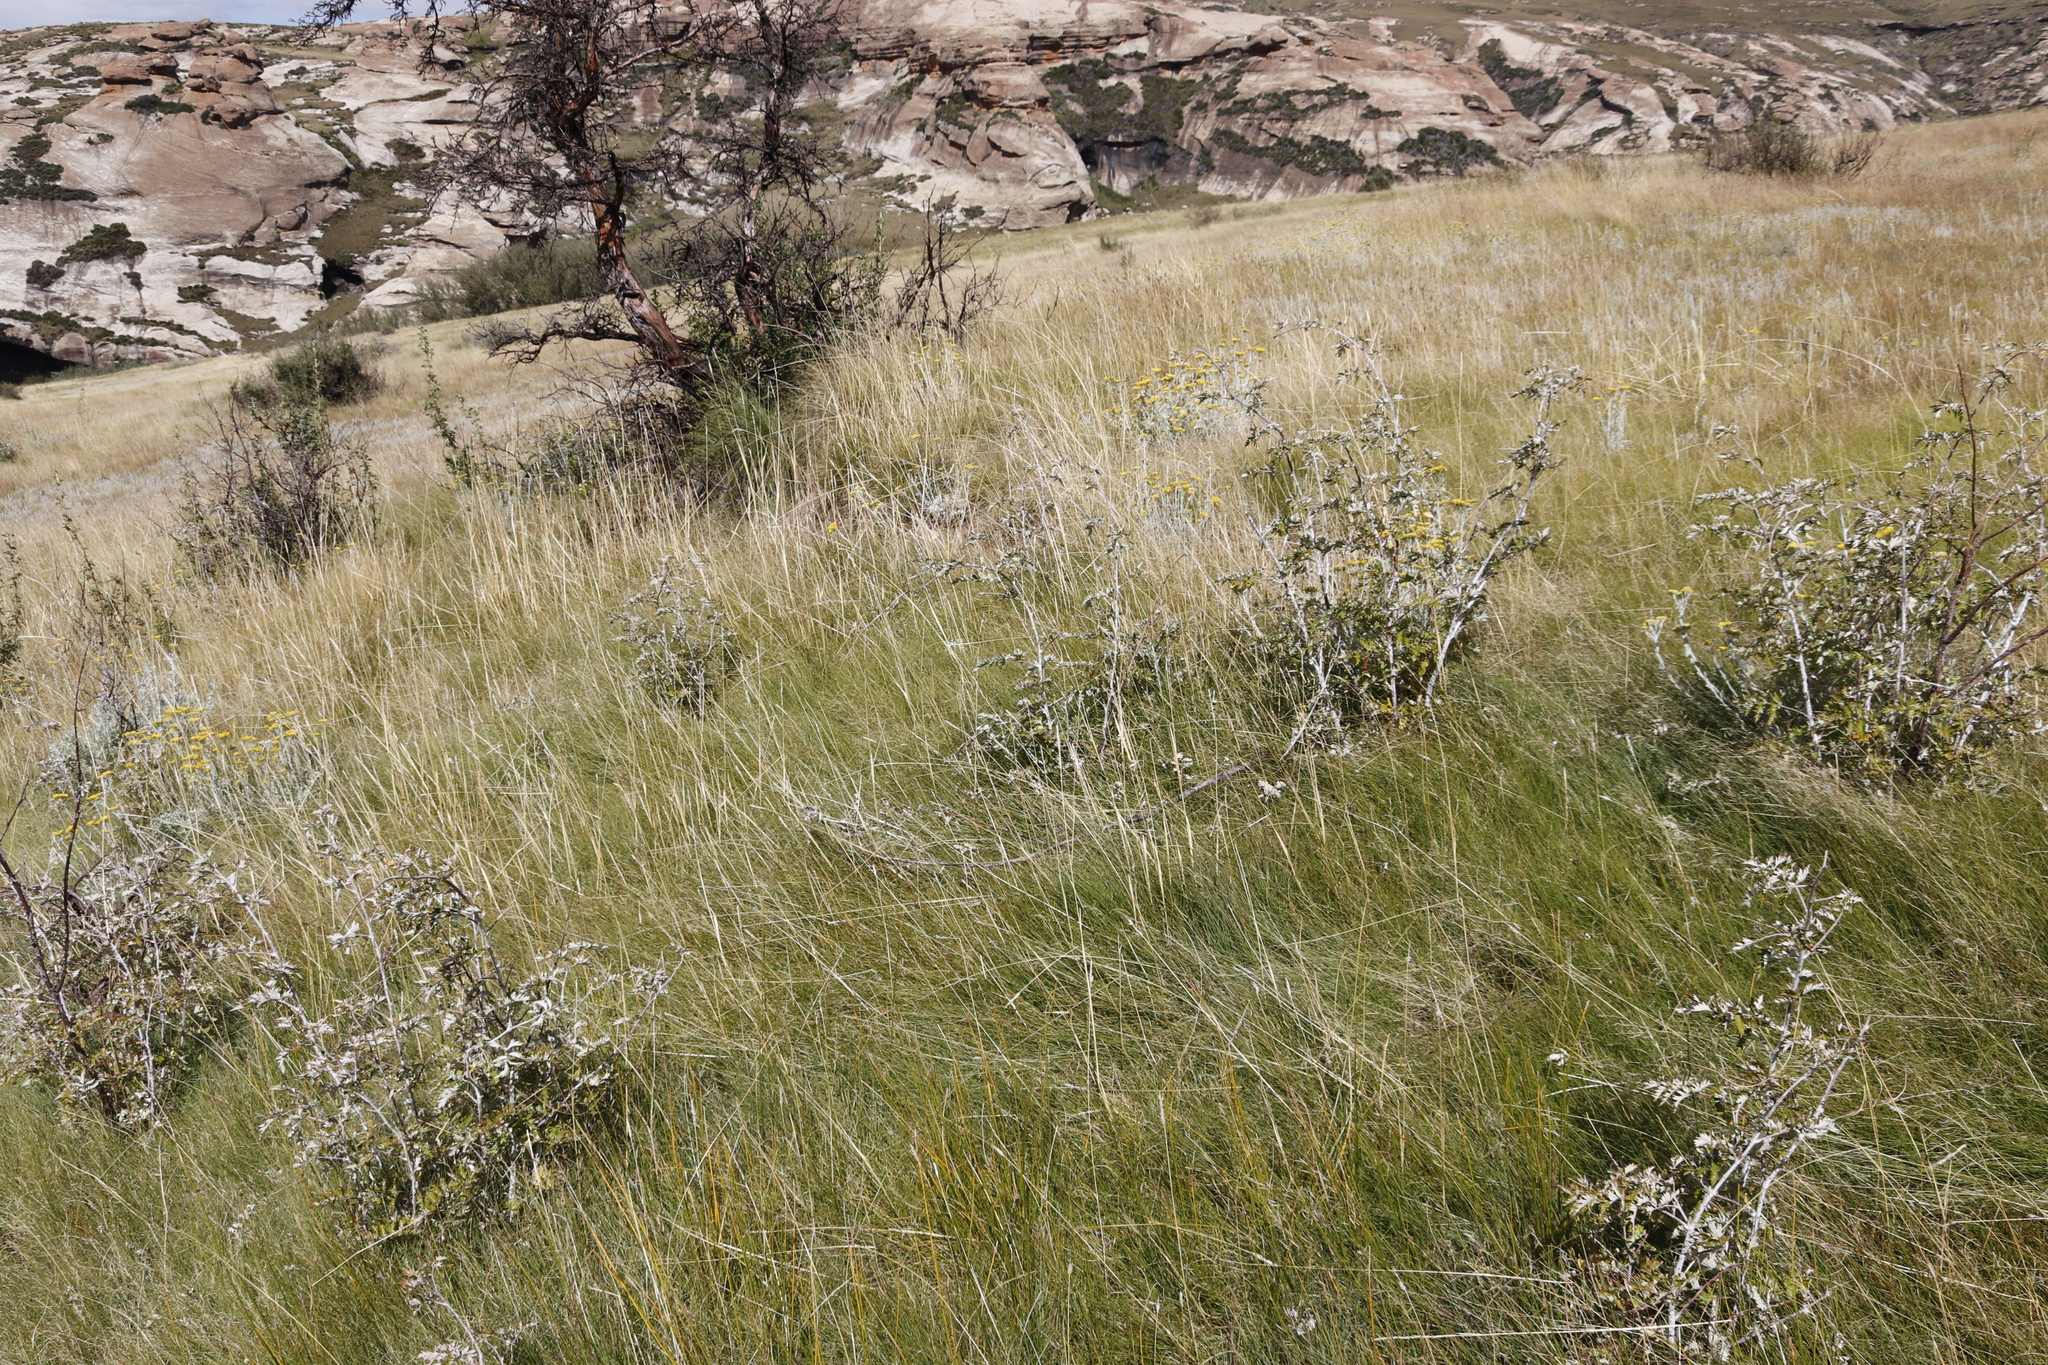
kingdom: Plantae
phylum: Tracheophyta
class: Magnoliopsida
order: Rosales
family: Rosaceae
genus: Rubus
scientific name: Rubus ludwigii
